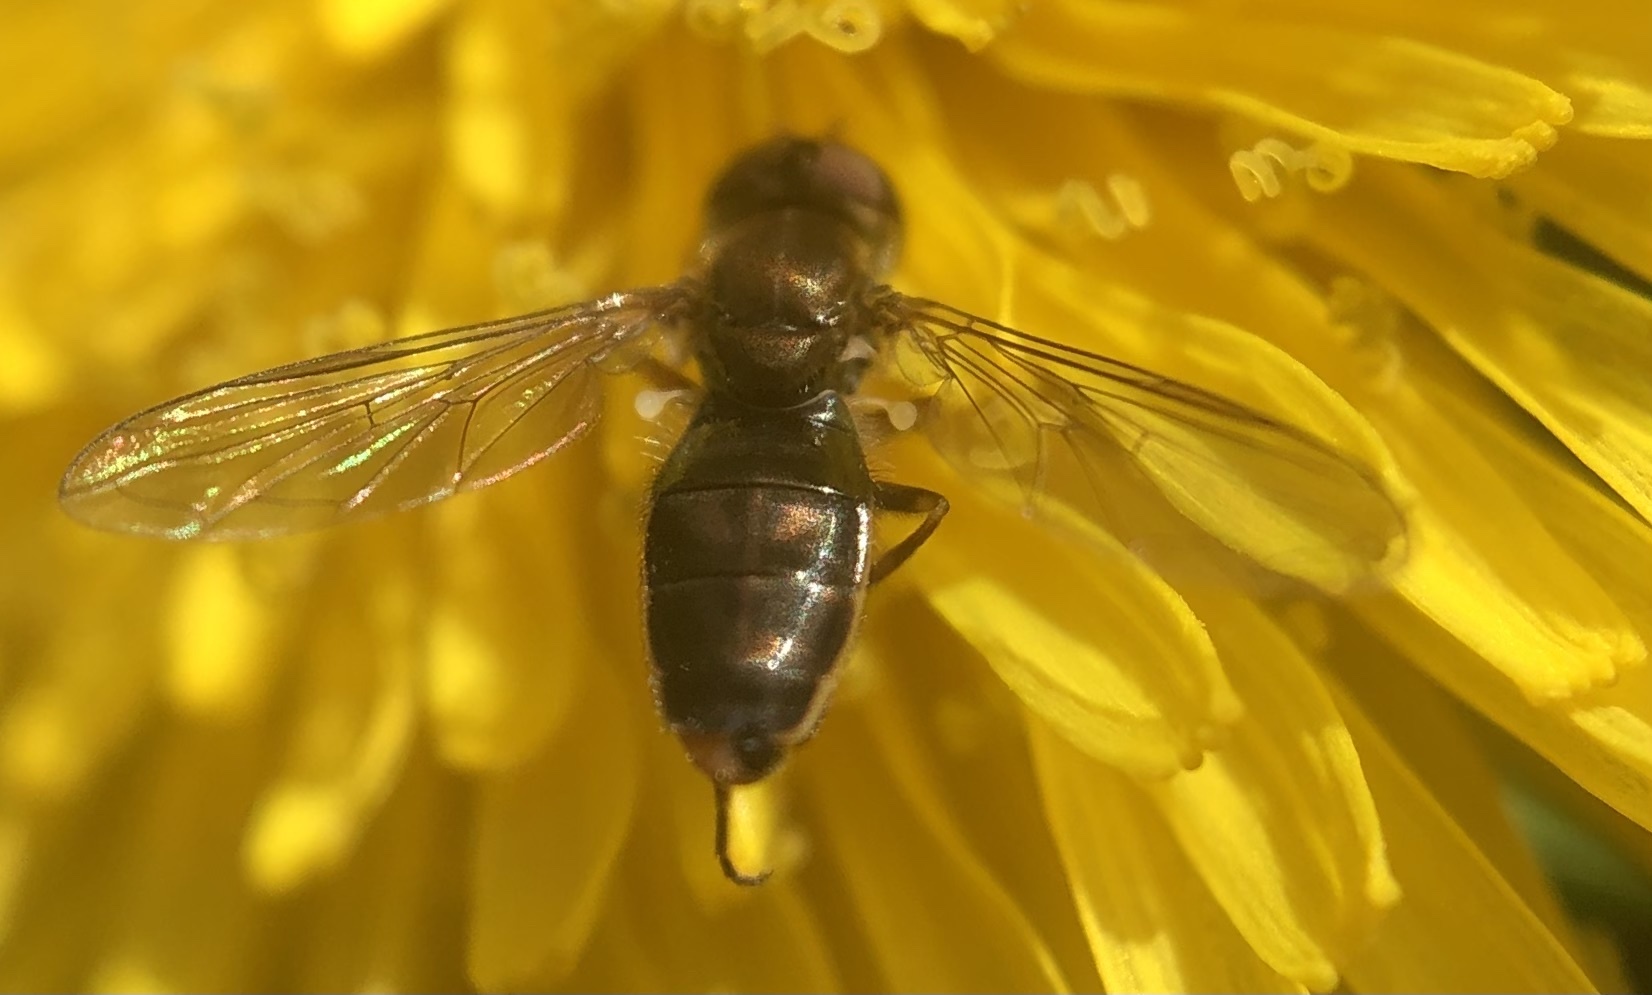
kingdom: Animalia
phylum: Arthropoda
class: Insecta
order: Diptera
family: Syrphidae
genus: Toxomerus
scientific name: Toxomerus marginatus
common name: Syrphid fly
